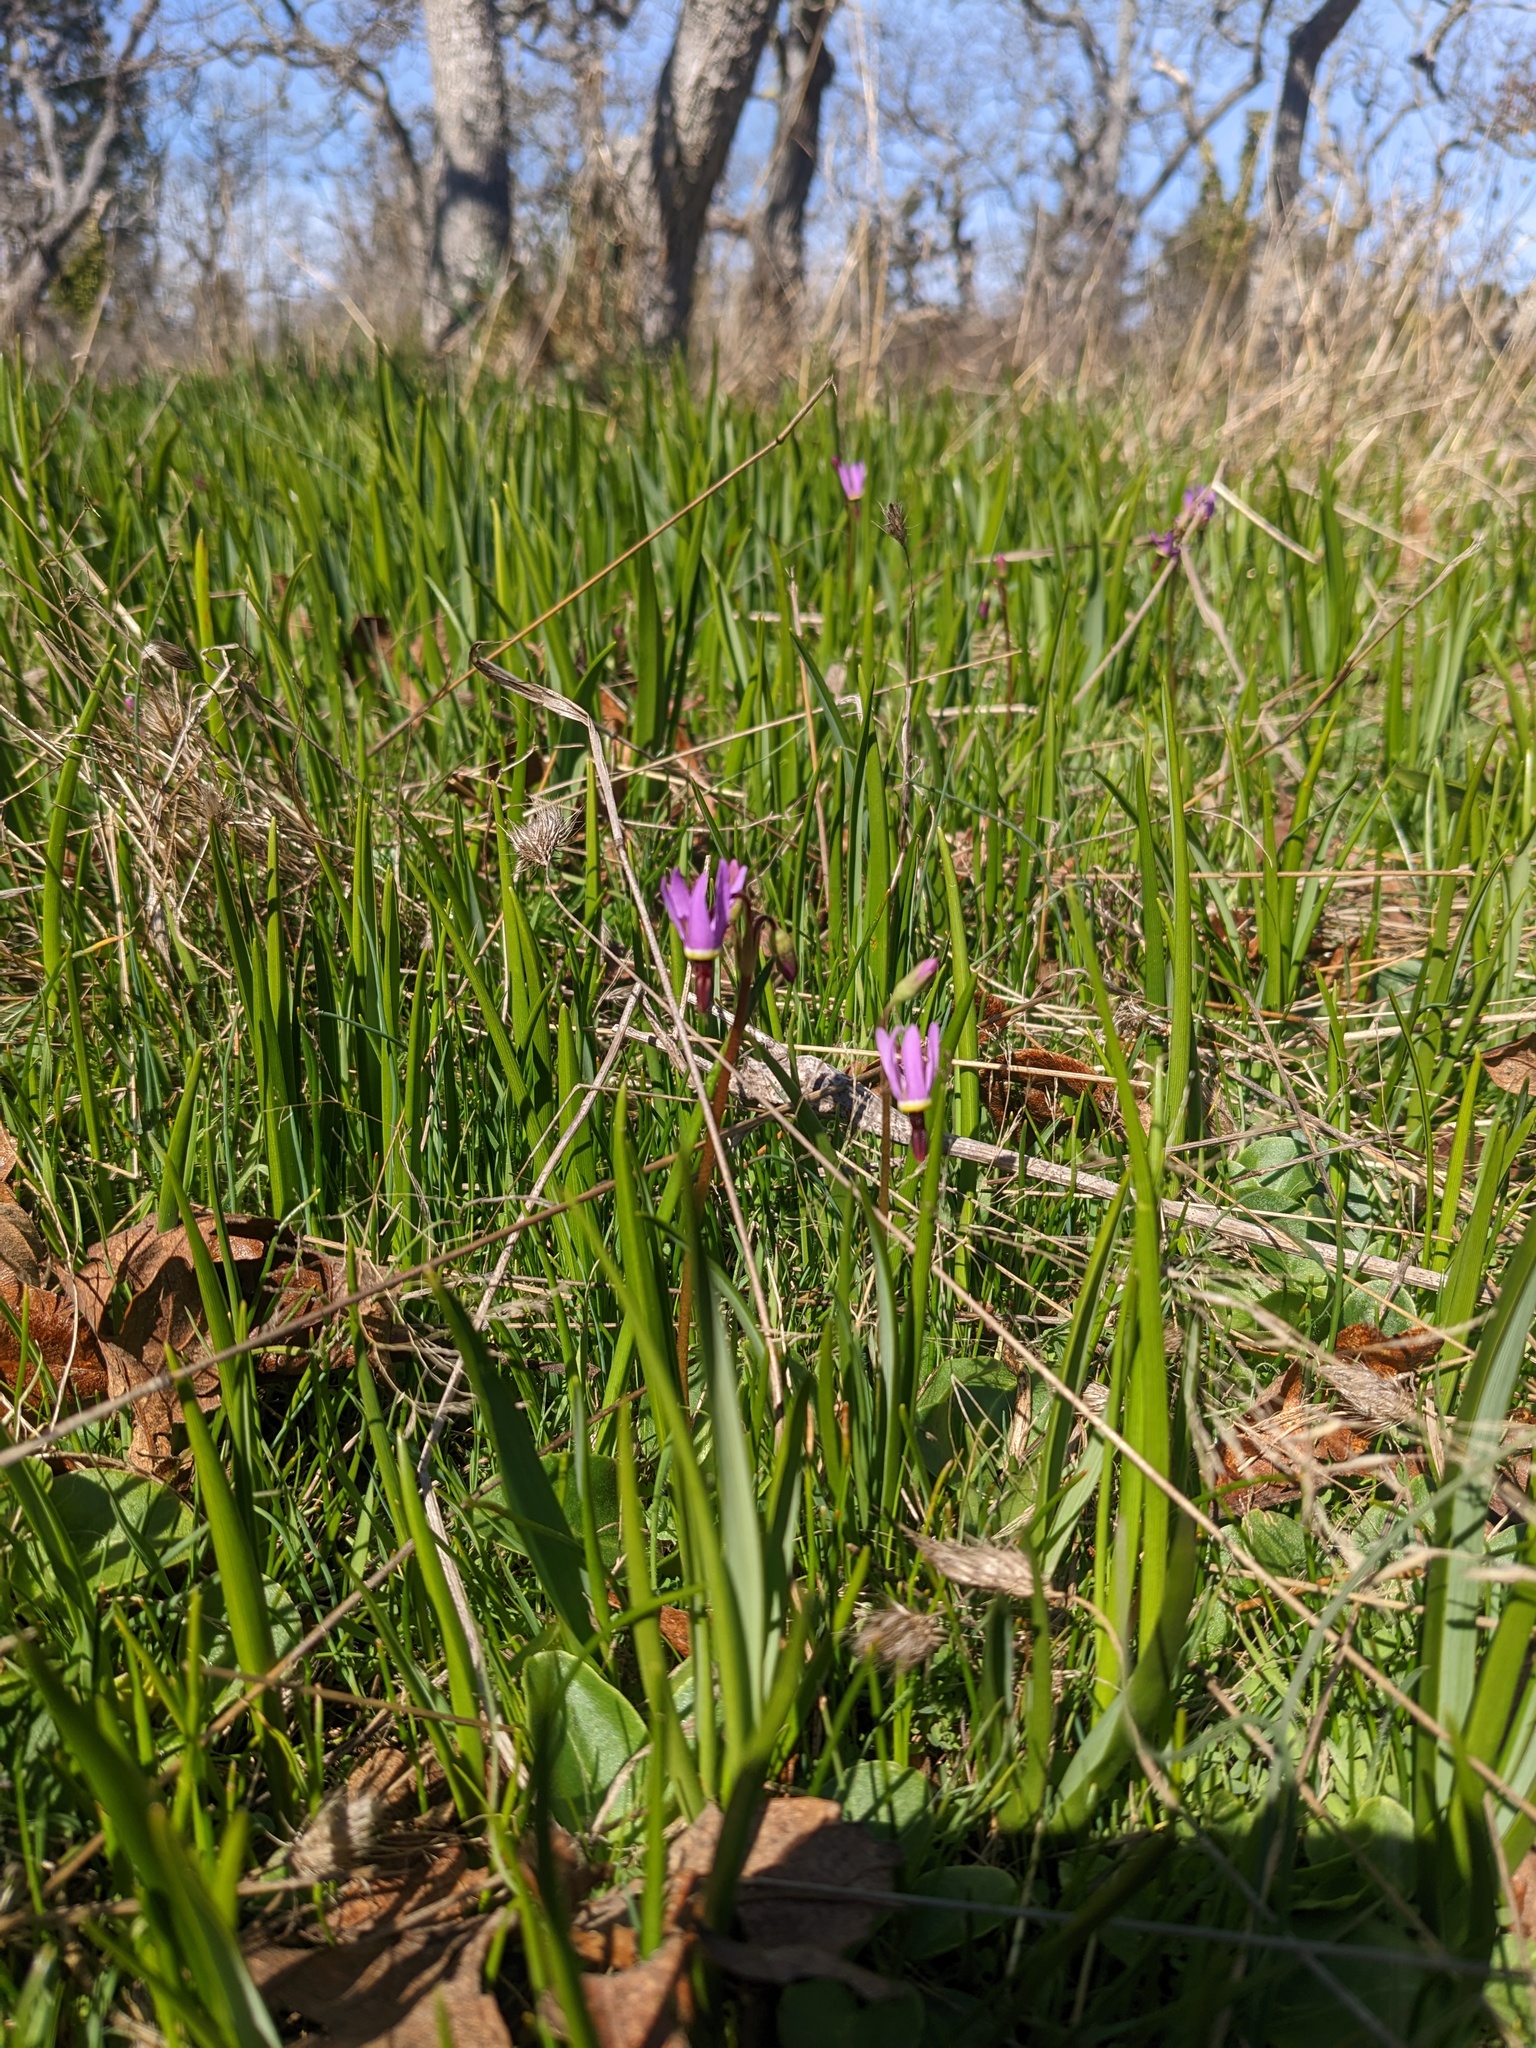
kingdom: Plantae
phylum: Tracheophyta
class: Magnoliopsida
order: Ericales
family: Primulaceae
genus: Dodecatheon
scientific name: Dodecatheon hendersonii
